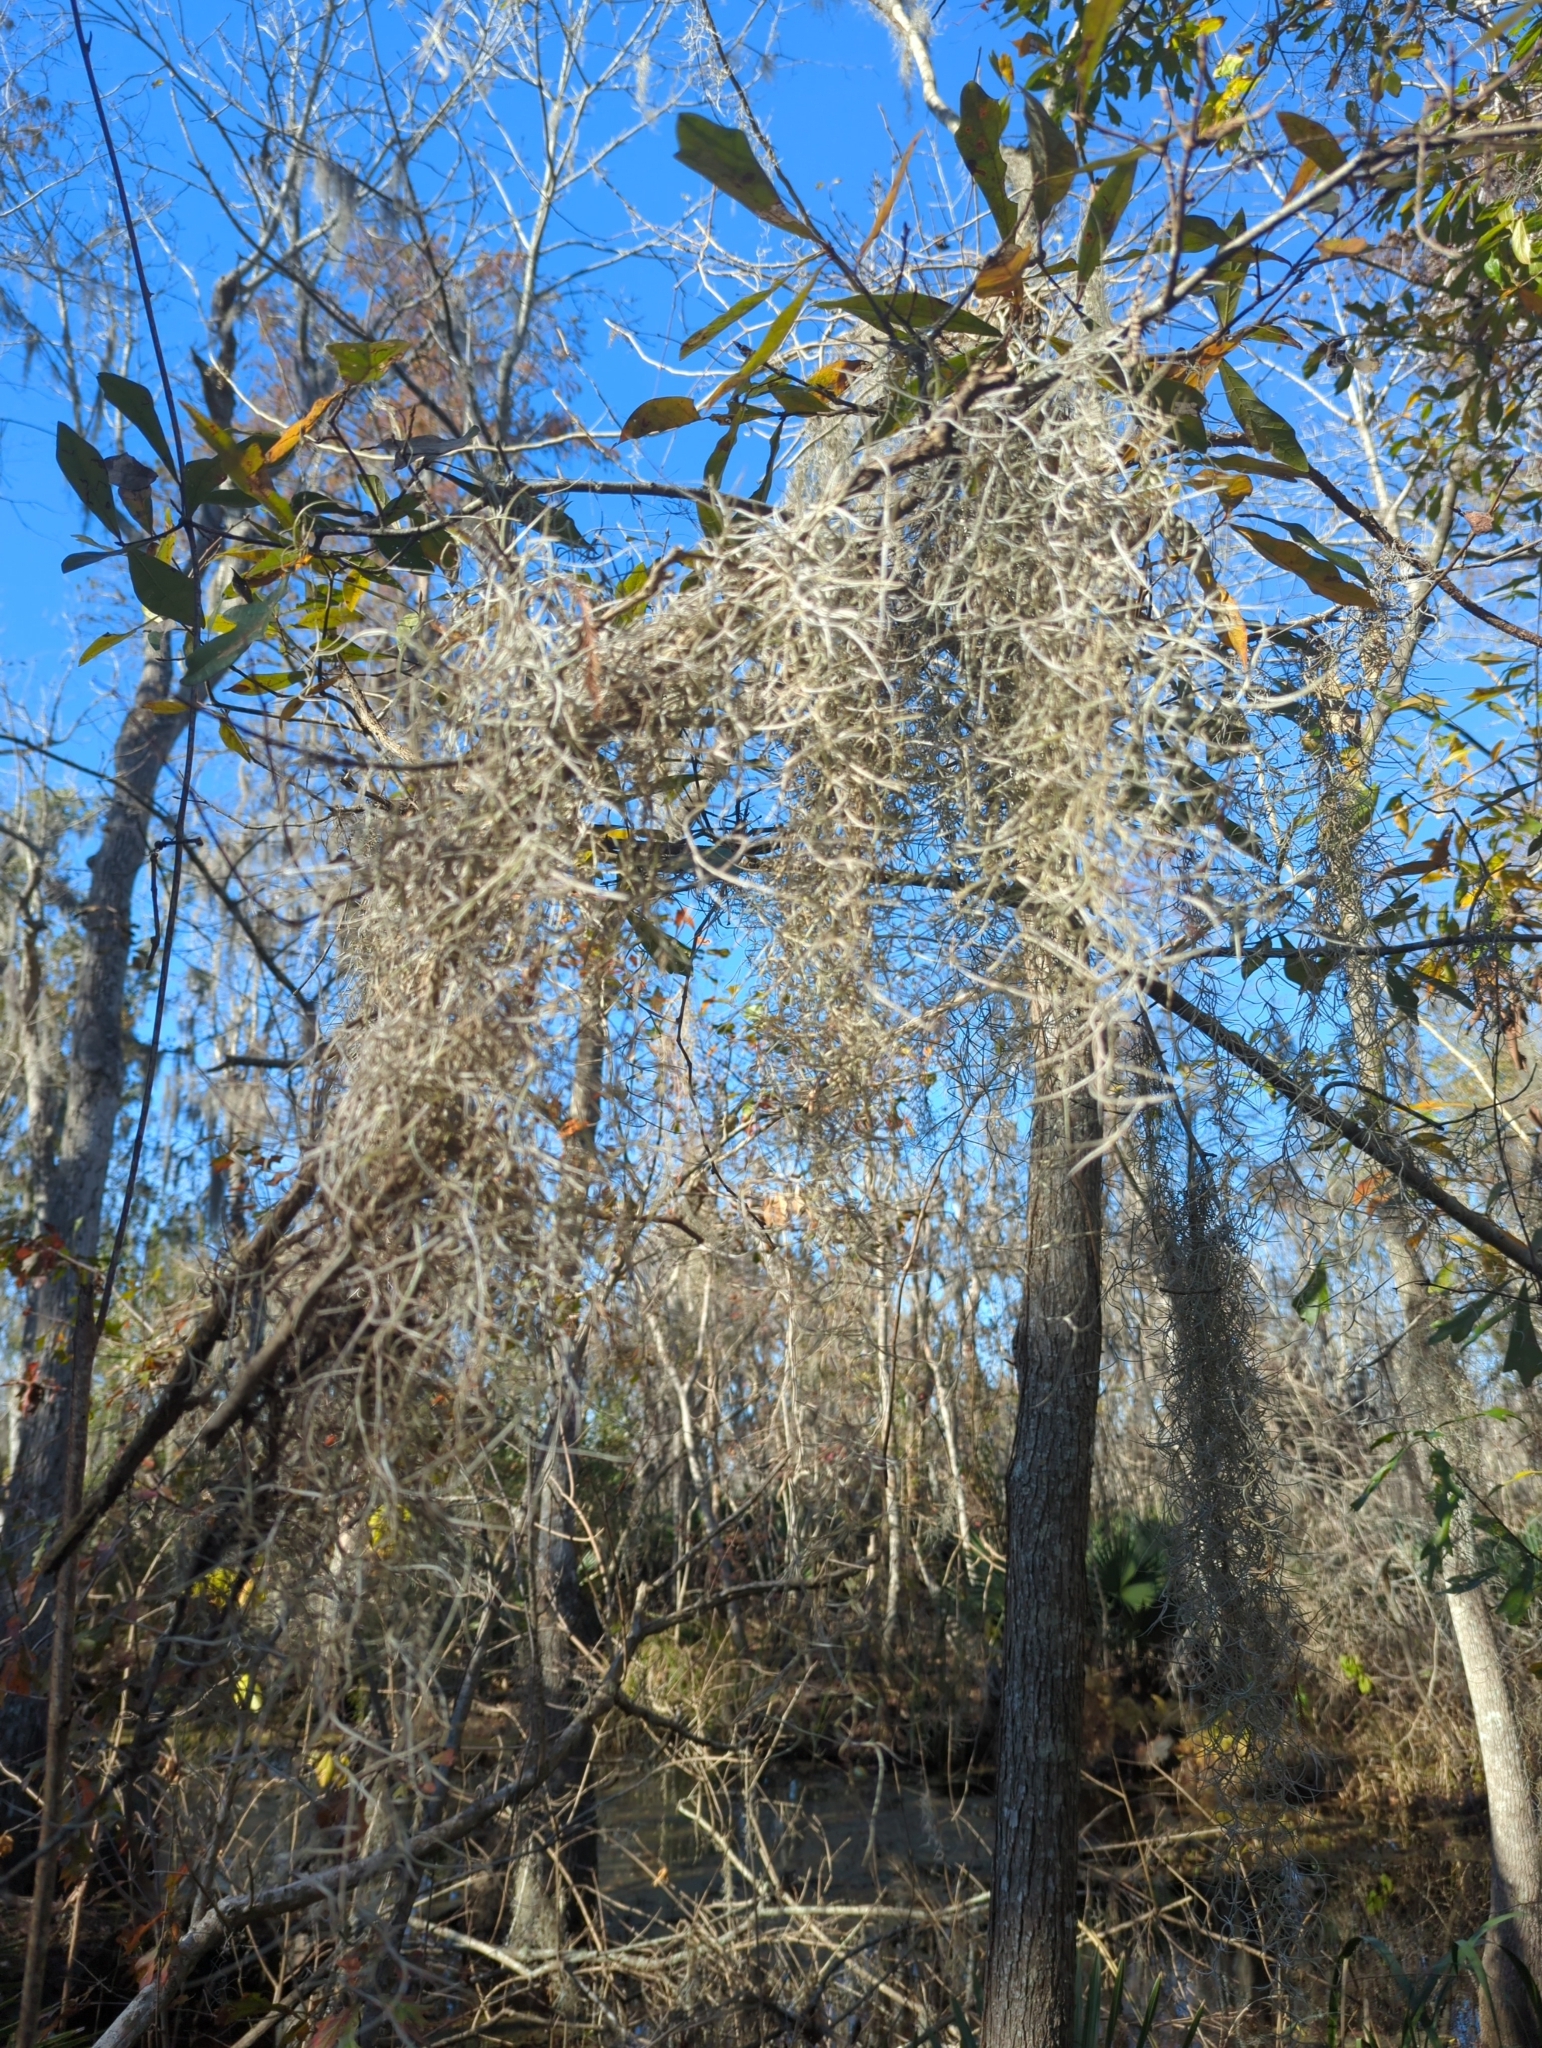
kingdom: Plantae
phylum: Tracheophyta
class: Liliopsida
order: Poales
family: Bromeliaceae
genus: Tillandsia
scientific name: Tillandsia usneoides
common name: Spanish moss
